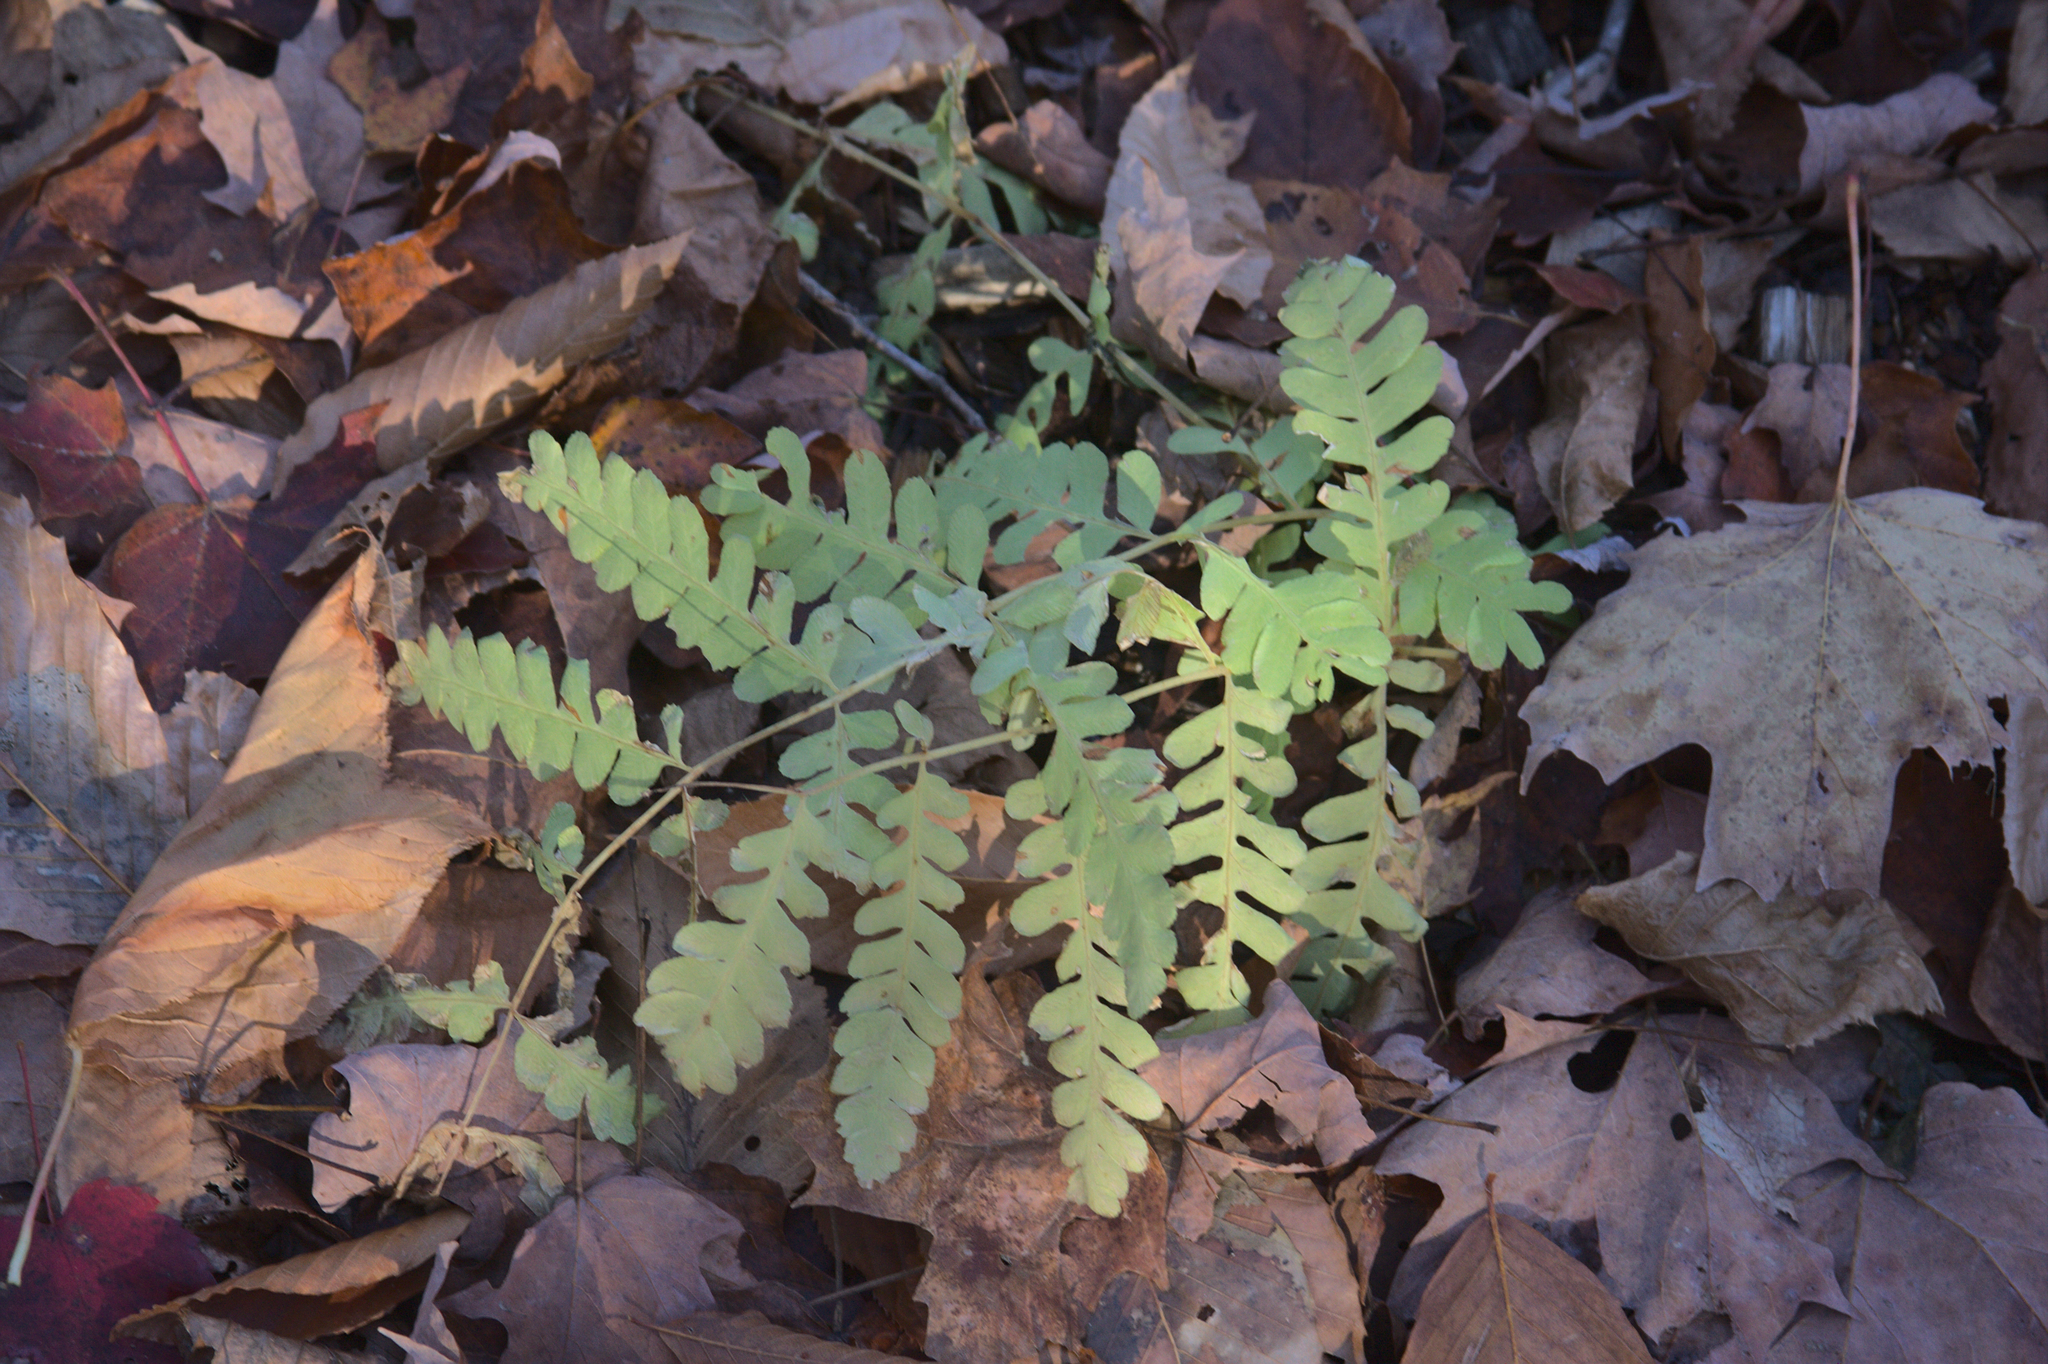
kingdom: Plantae
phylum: Tracheophyta
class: Polypodiopsida
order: Osmundales
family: Osmundaceae
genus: Claytosmunda
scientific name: Claytosmunda claytoniana
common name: Clayton's fern
